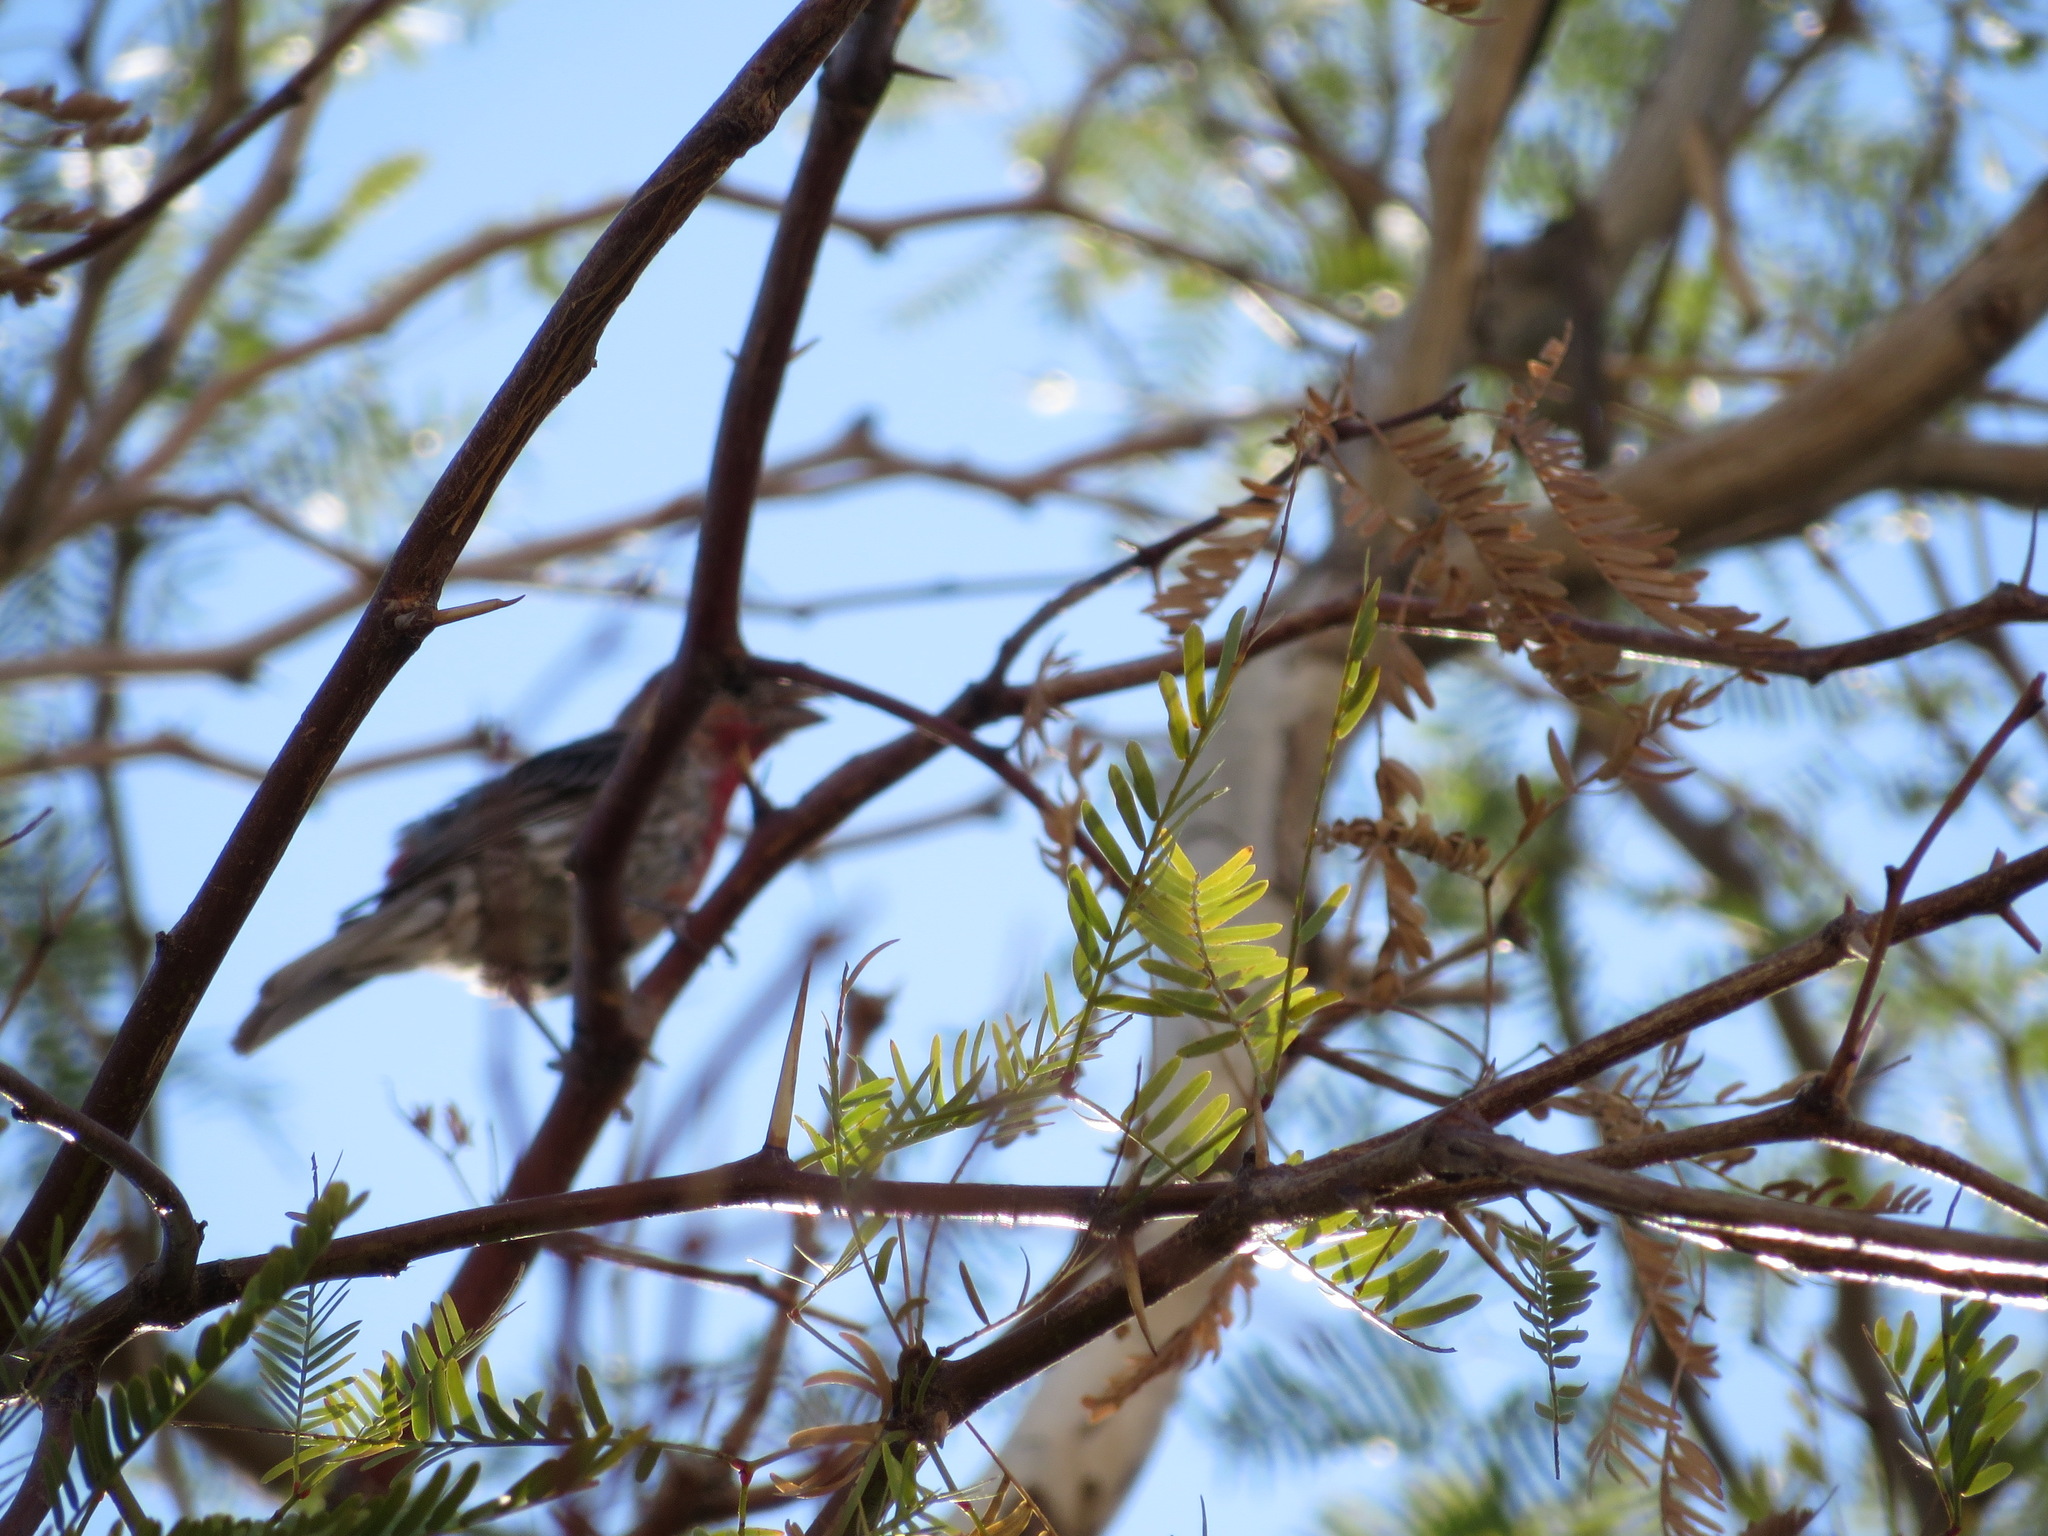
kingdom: Animalia
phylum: Chordata
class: Aves
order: Passeriformes
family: Fringillidae
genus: Haemorhous
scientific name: Haemorhous mexicanus
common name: House finch
